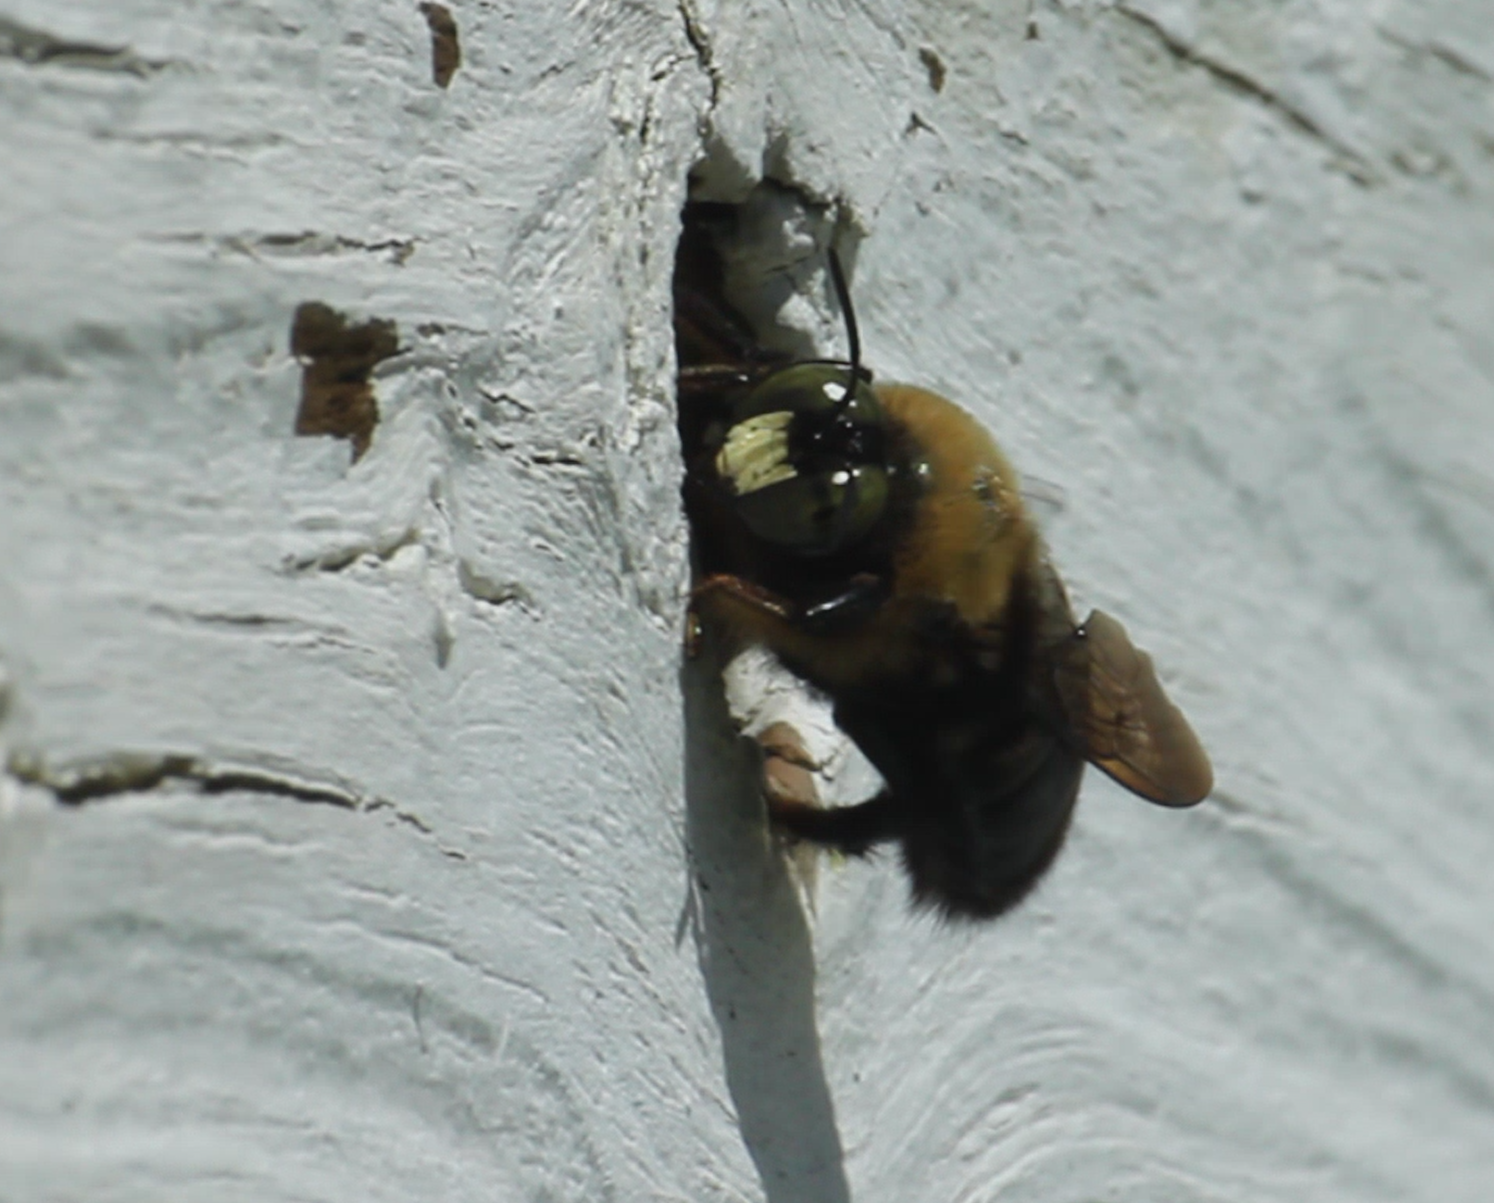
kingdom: Animalia
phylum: Arthropoda
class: Insecta
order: Hymenoptera
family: Apidae
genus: Xylocopa
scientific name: Xylocopa virginica
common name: Carpenter bee
